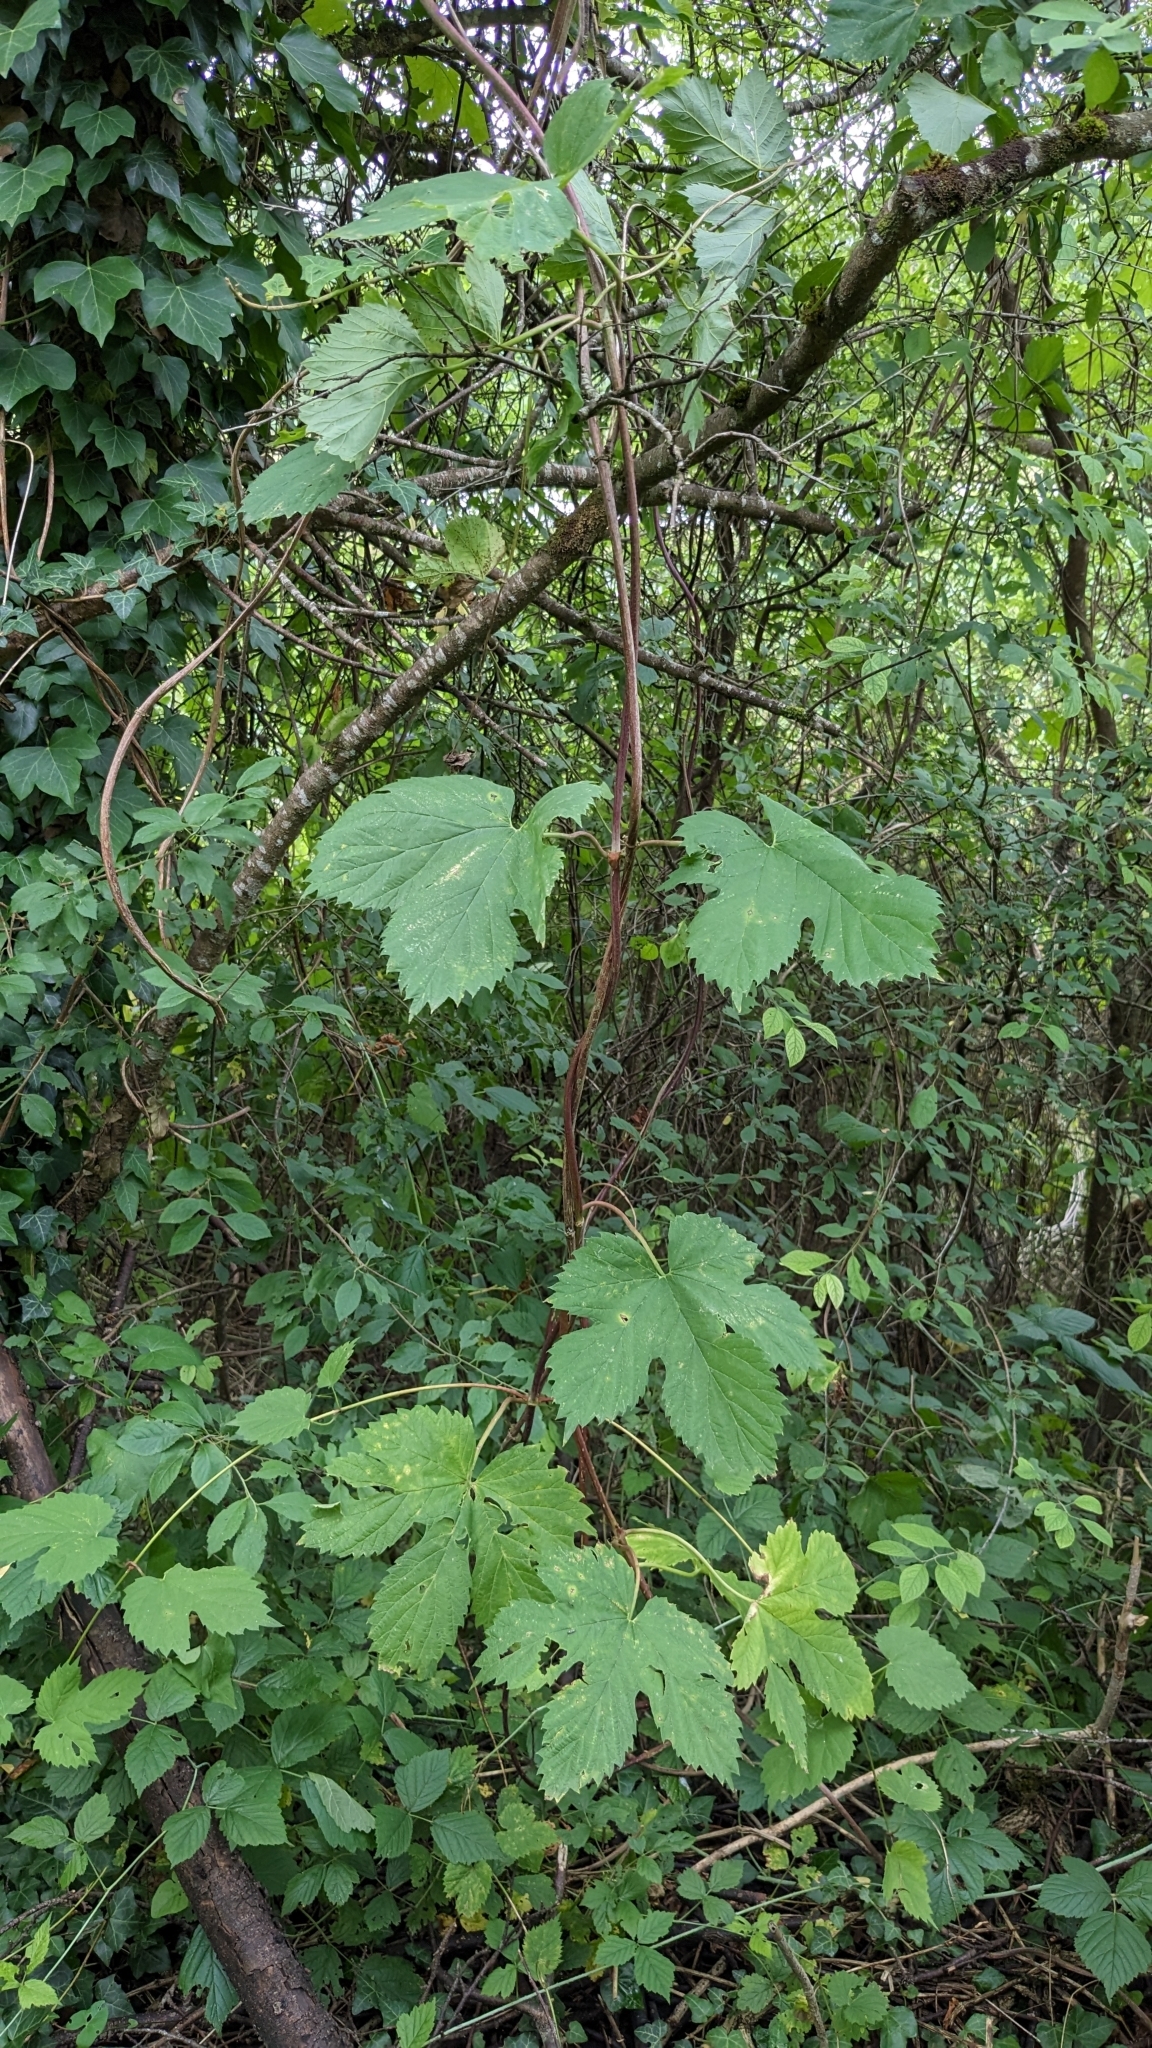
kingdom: Plantae
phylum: Tracheophyta
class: Magnoliopsida
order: Rosales
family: Cannabaceae
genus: Humulus
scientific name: Humulus lupulus
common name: Hop
